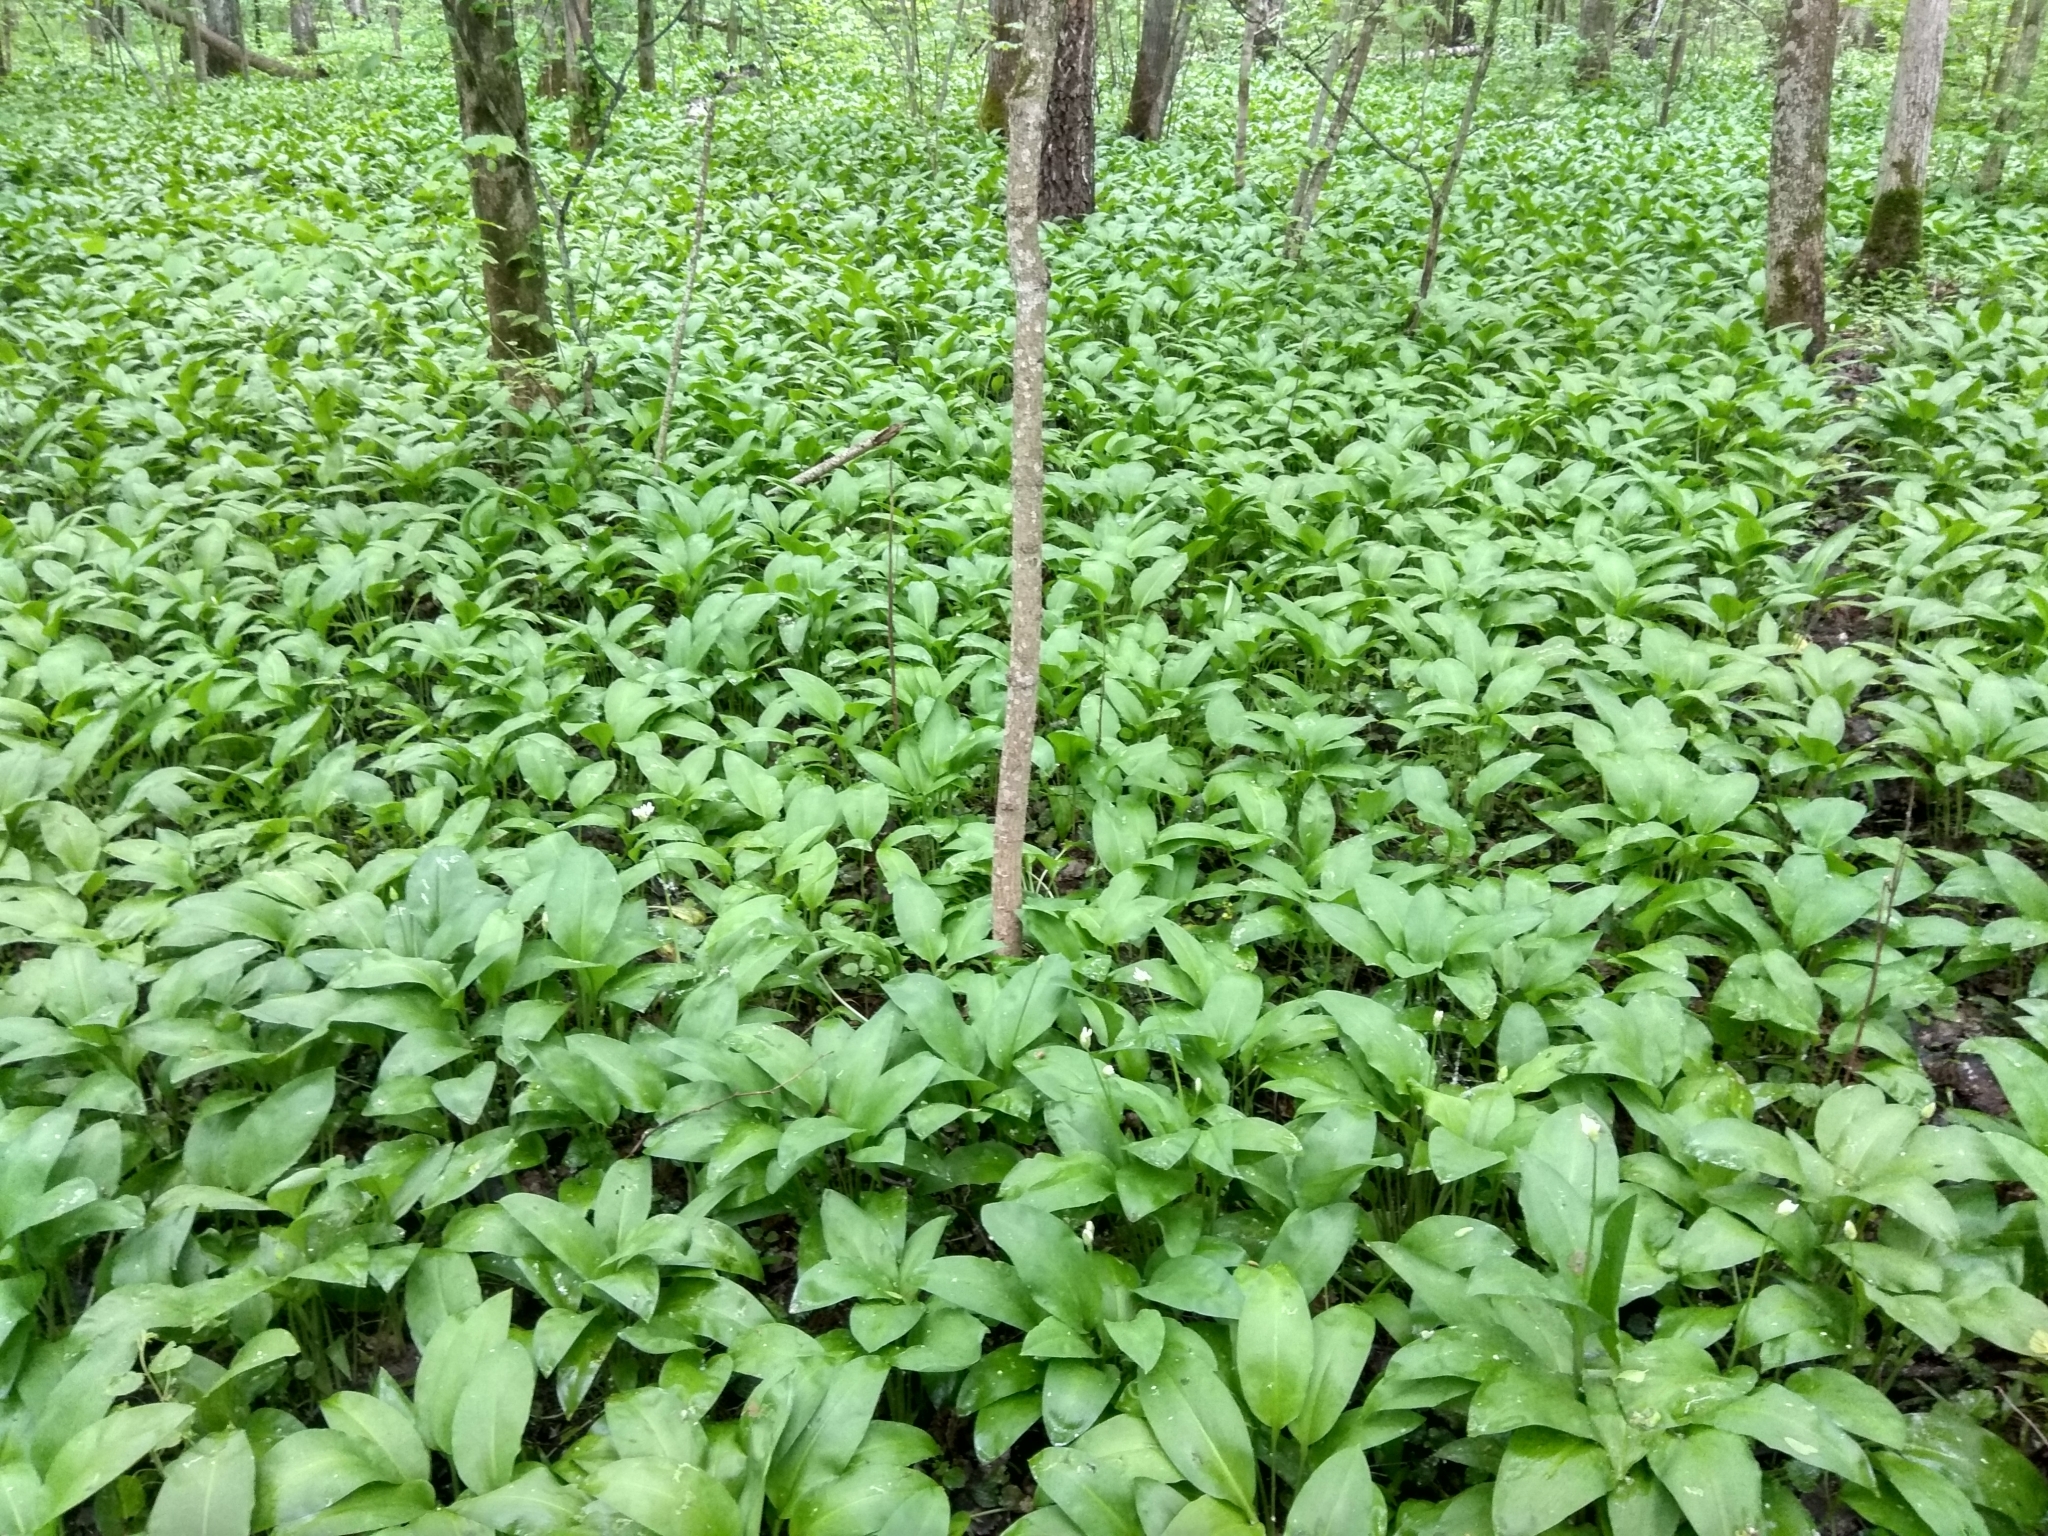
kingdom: Plantae
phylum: Tracheophyta
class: Liliopsida
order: Asparagales
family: Amaryllidaceae
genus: Allium
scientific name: Allium ursinum
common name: Ramsons
